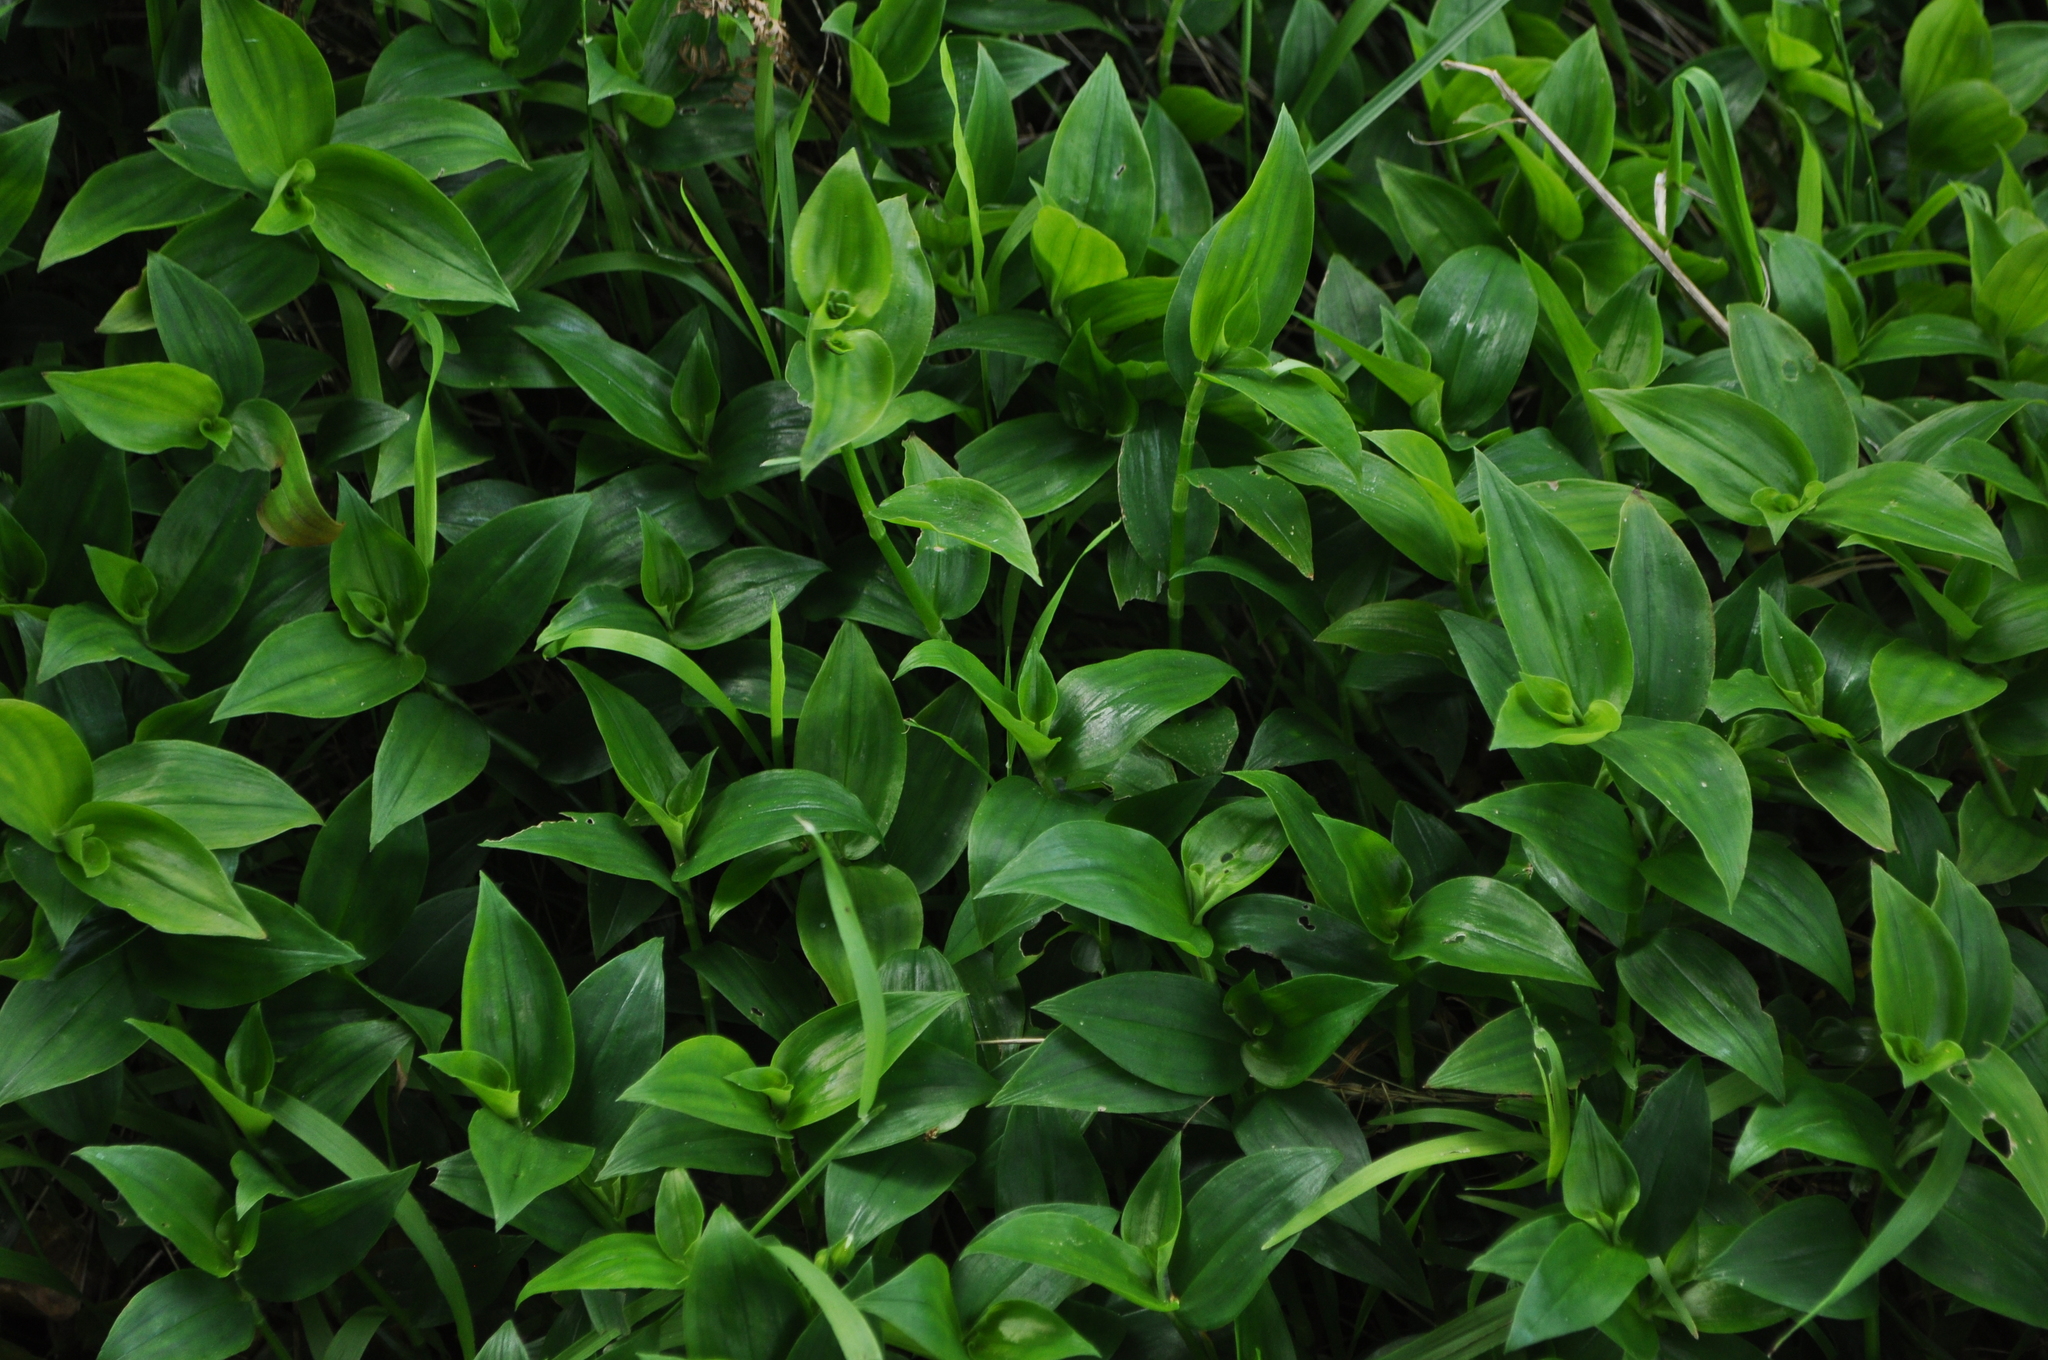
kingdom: Plantae
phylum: Tracheophyta
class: Liliopsida
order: Commelinales
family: Commelinaceae
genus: Tradescantia
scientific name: Tradescantia fluminensis
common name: Wandering-jew
